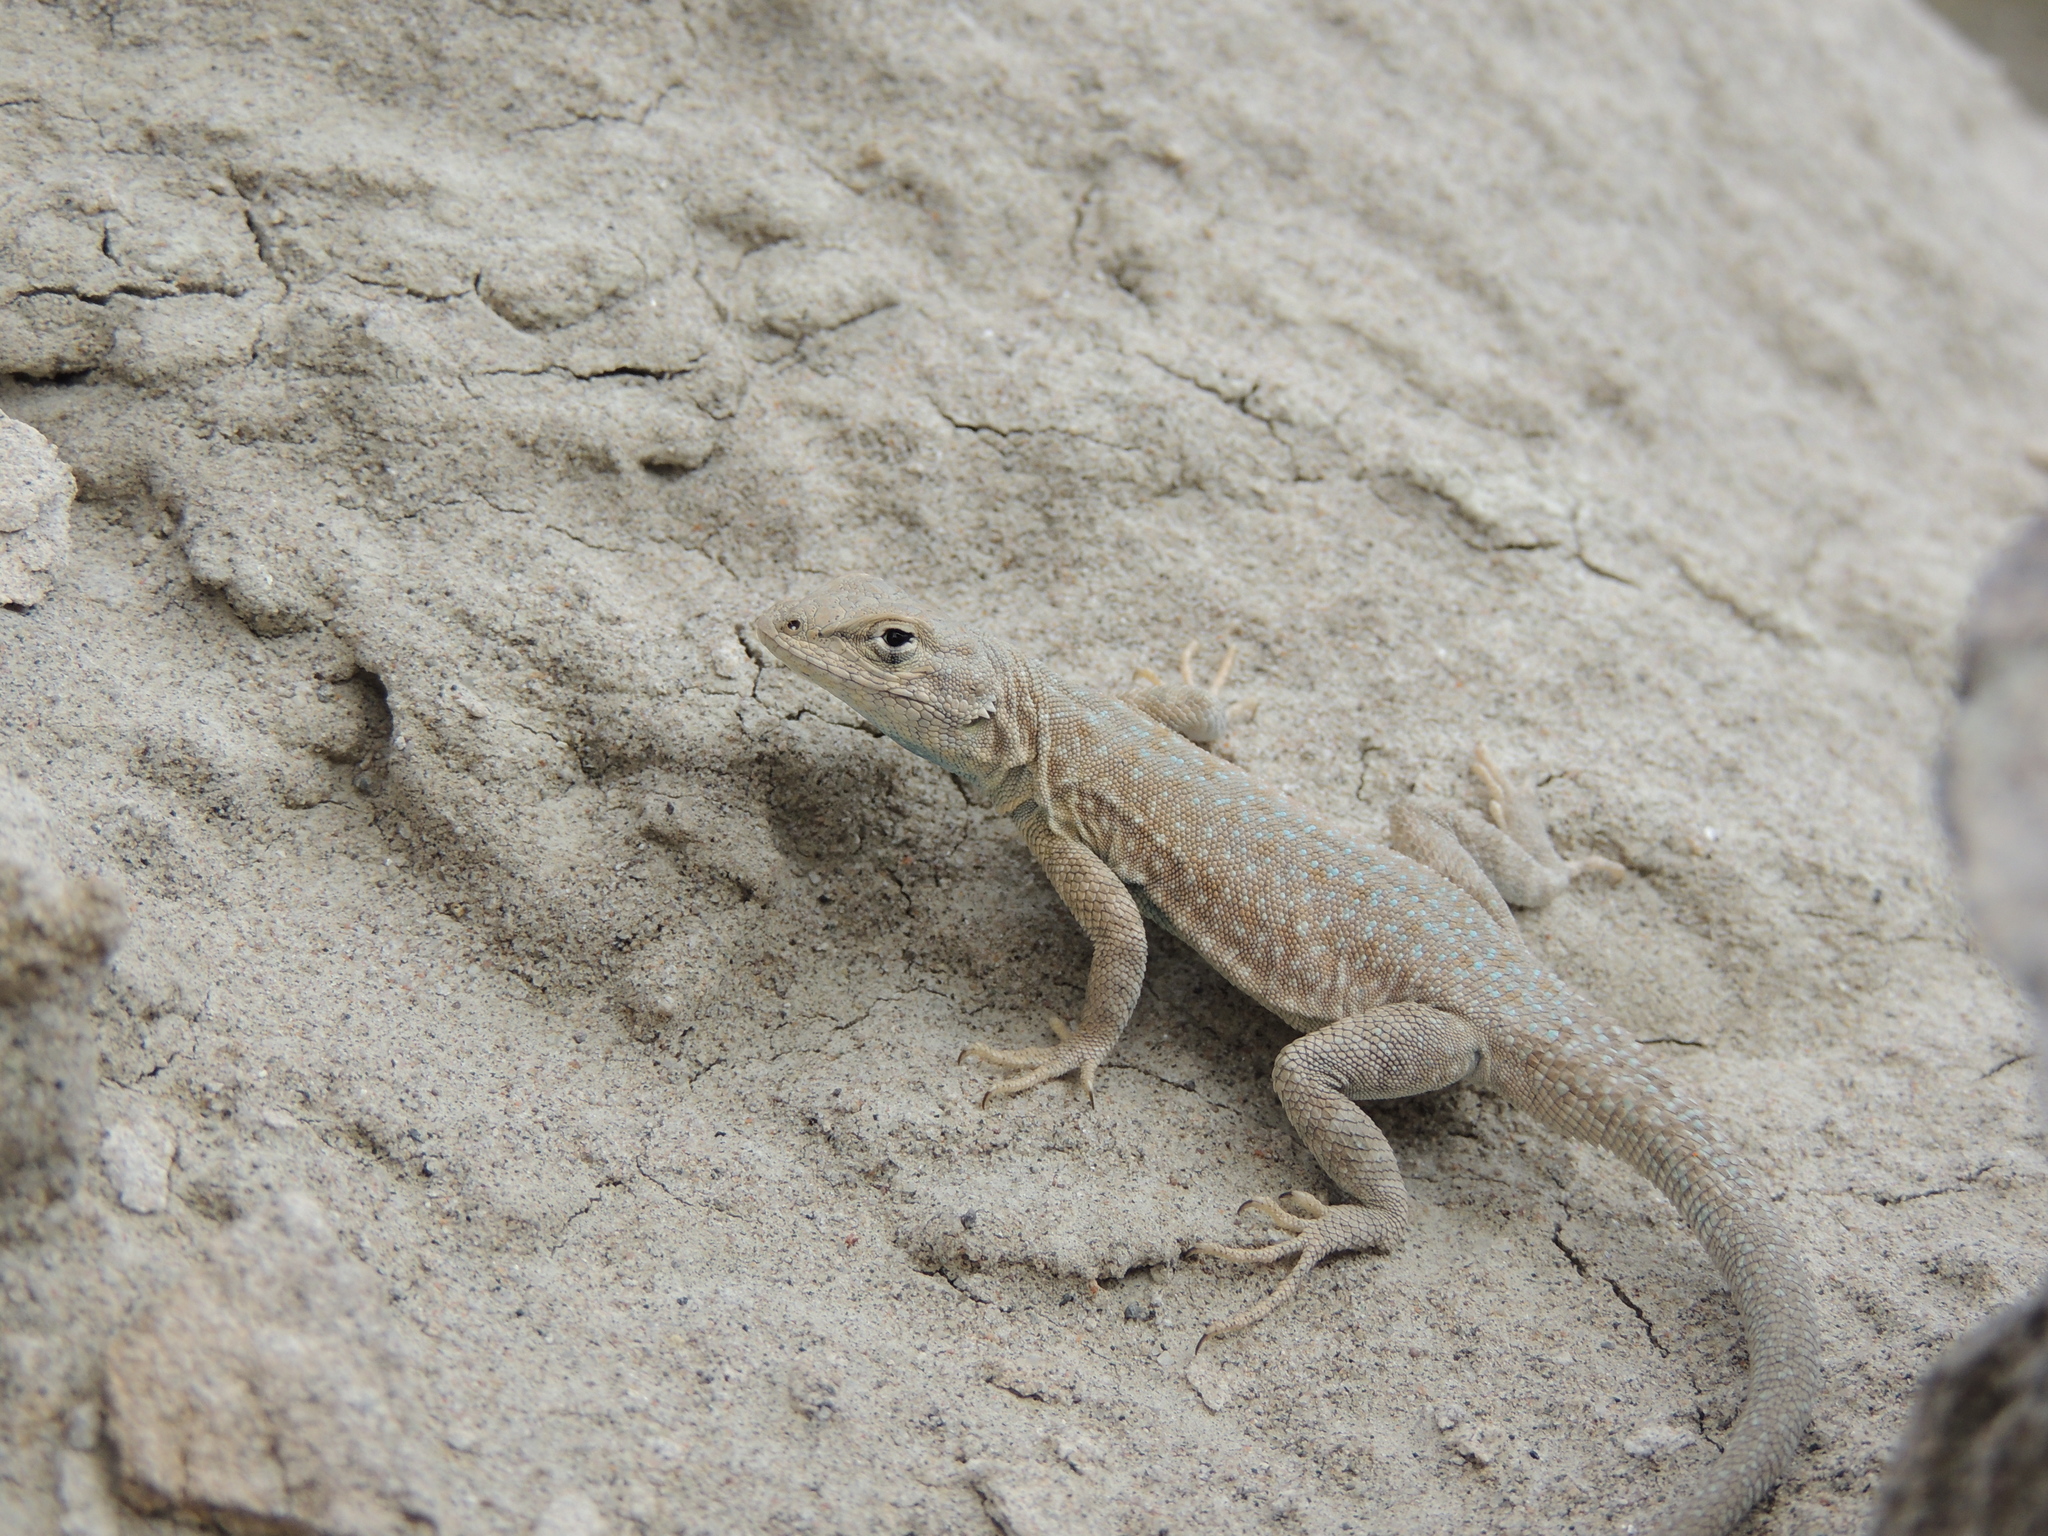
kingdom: Animalia
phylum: Chordata
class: Squamata
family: Phrynosomatidae
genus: Uta
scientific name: Uta stansburiana
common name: Side-blotched lizard
